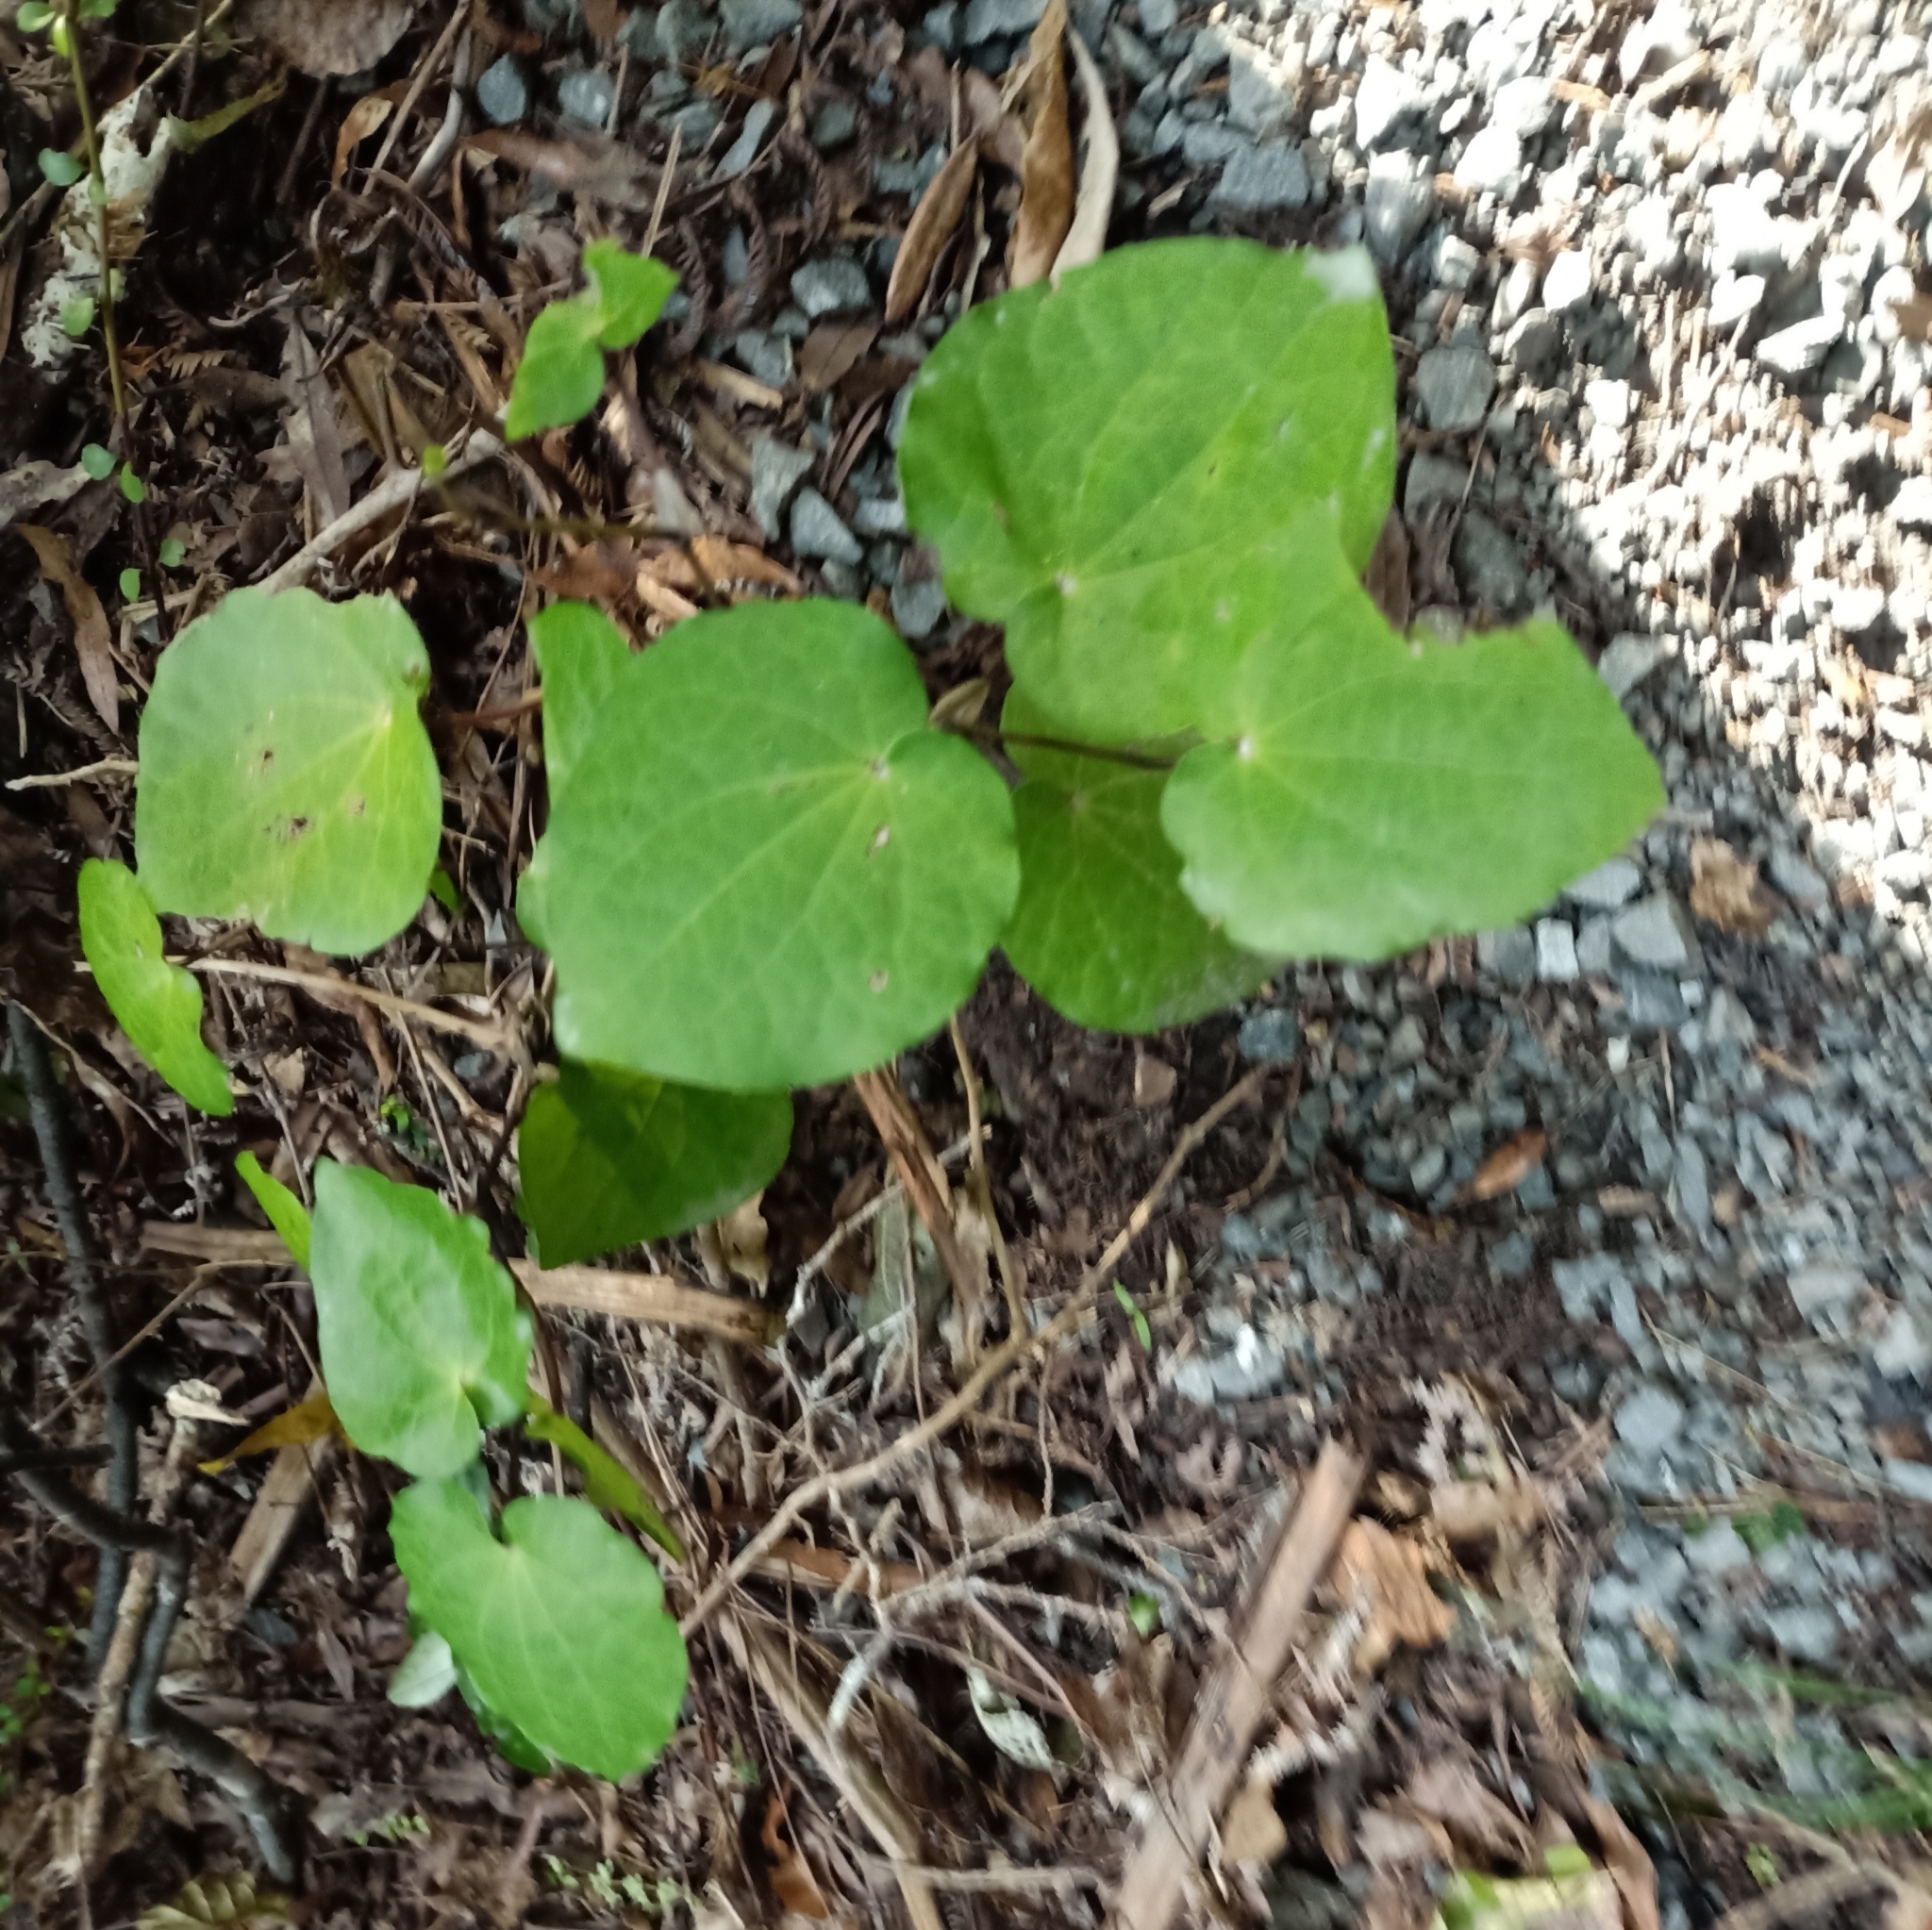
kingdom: Plantae
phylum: Tracheophyta
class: Magnoliopsida
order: Piperales
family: Piperaceae
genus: Macropiper
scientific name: Macropiper excelsum
